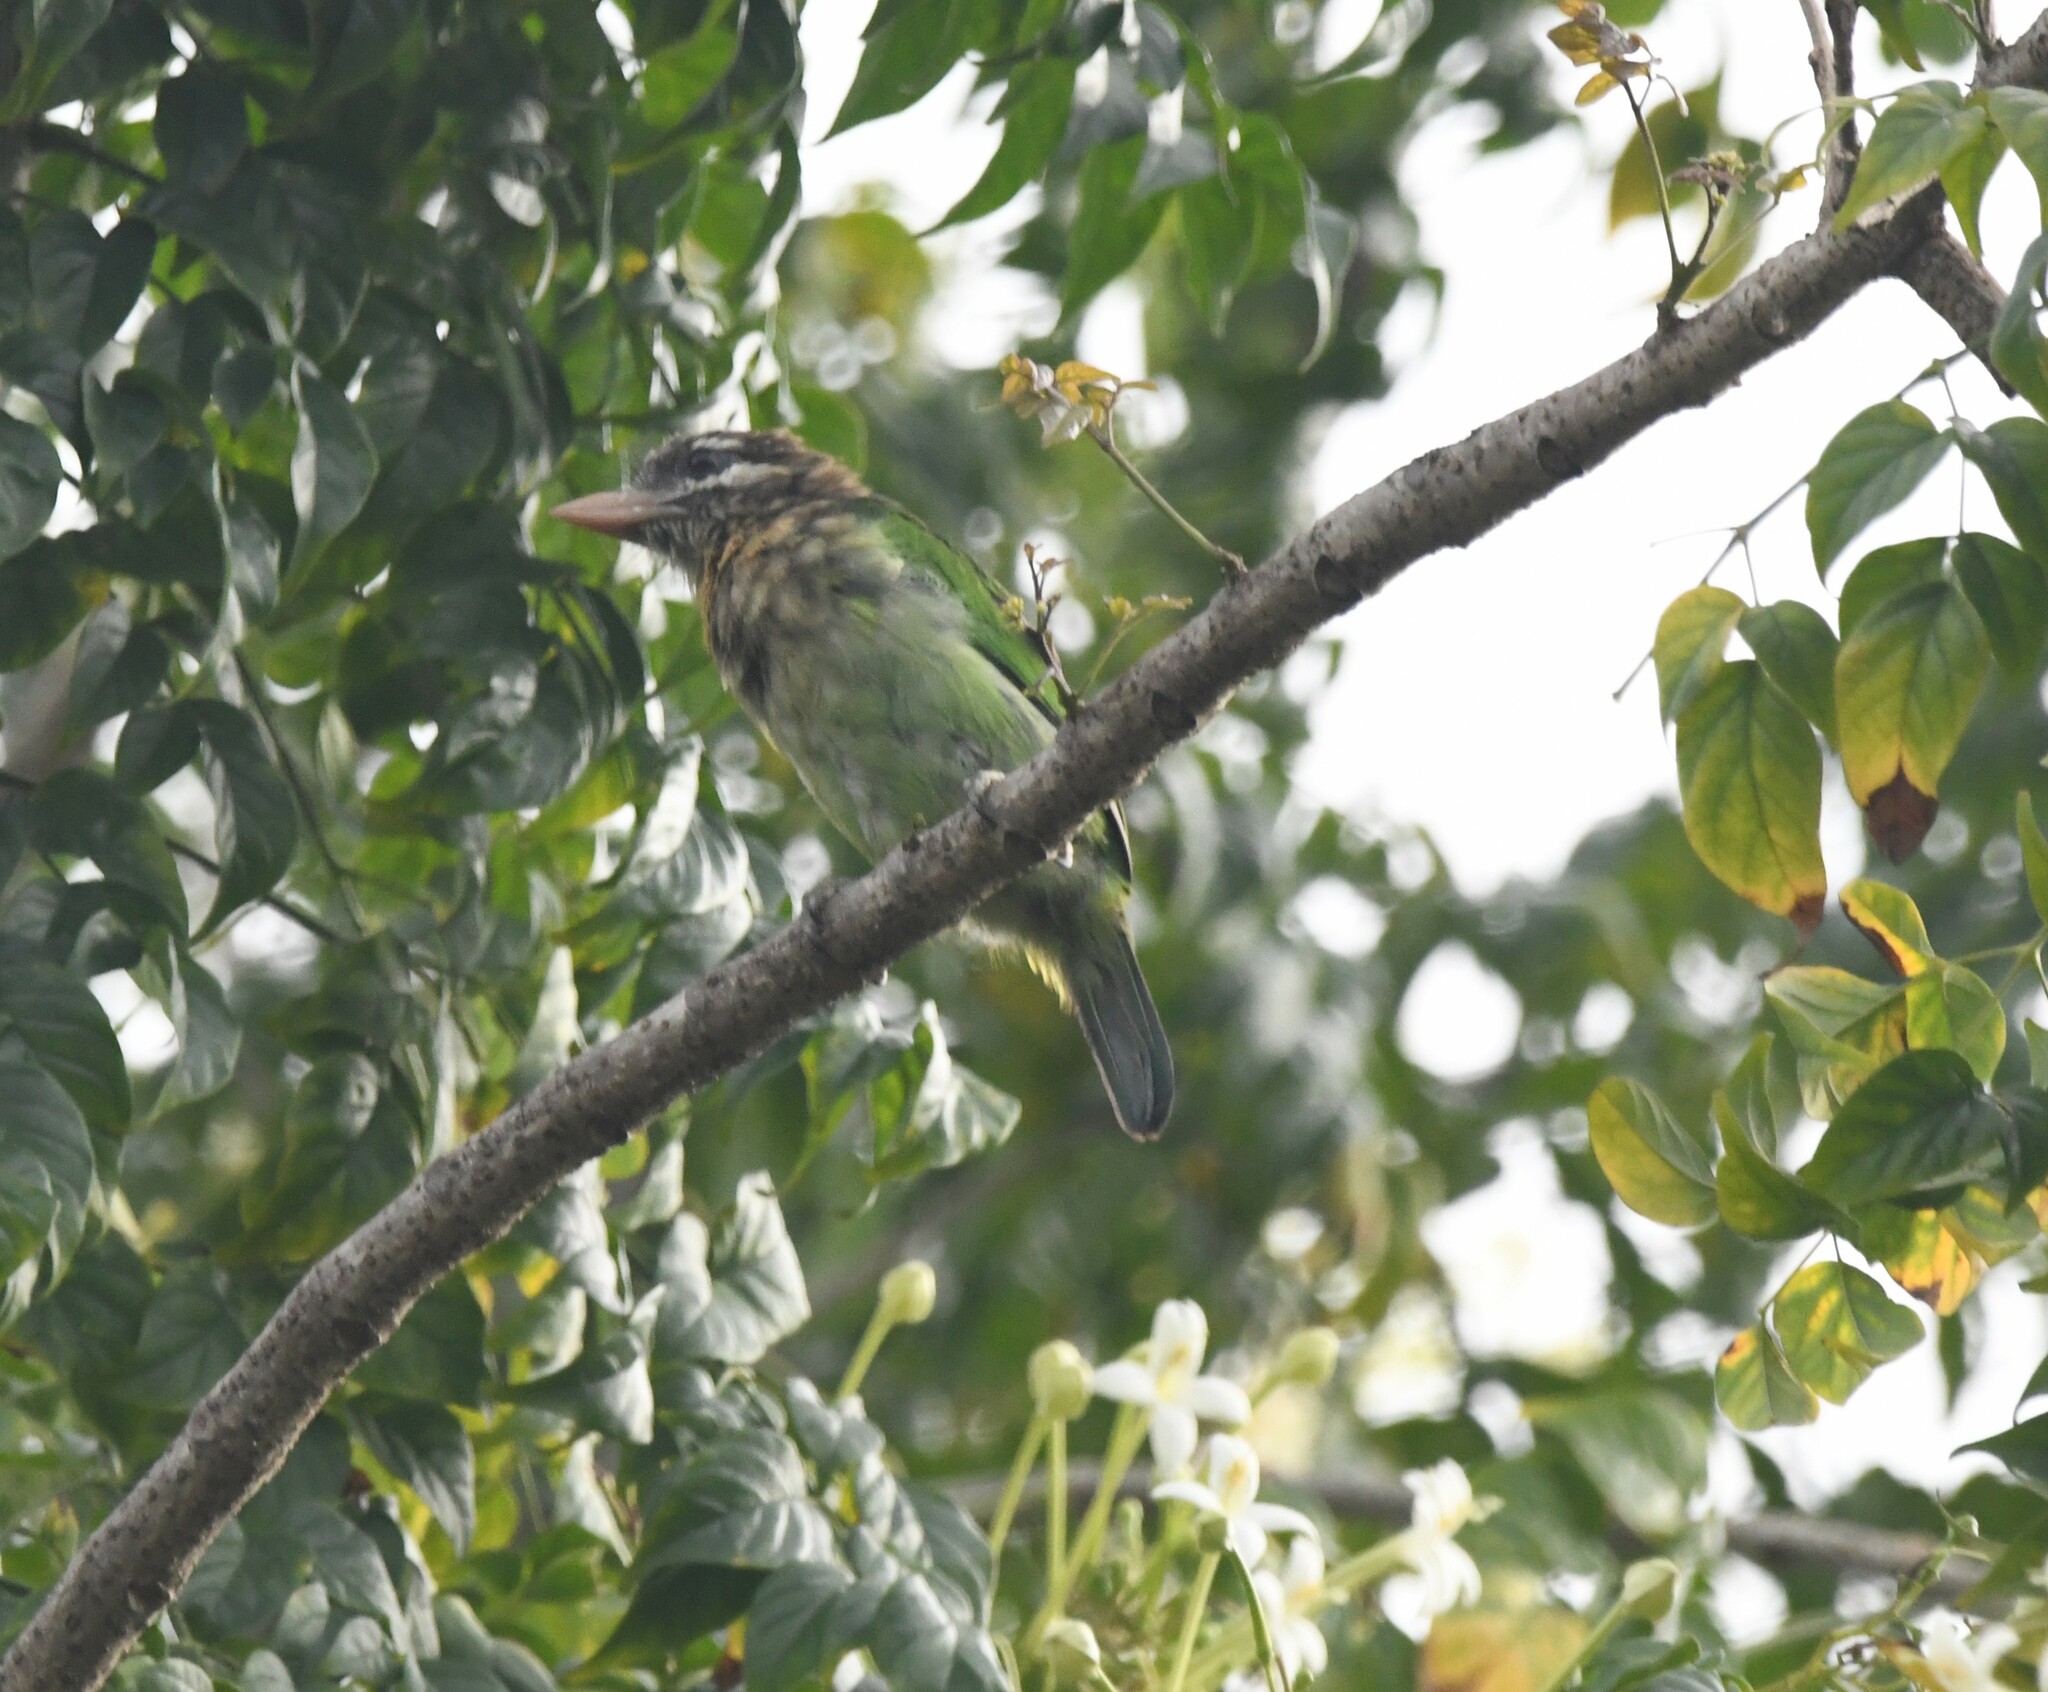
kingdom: Animalia
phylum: Chordata
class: Aves
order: Piciformes
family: Megalaimidae
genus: Psilopogon
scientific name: Psilopogon viridis
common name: White-cheeked barbet
